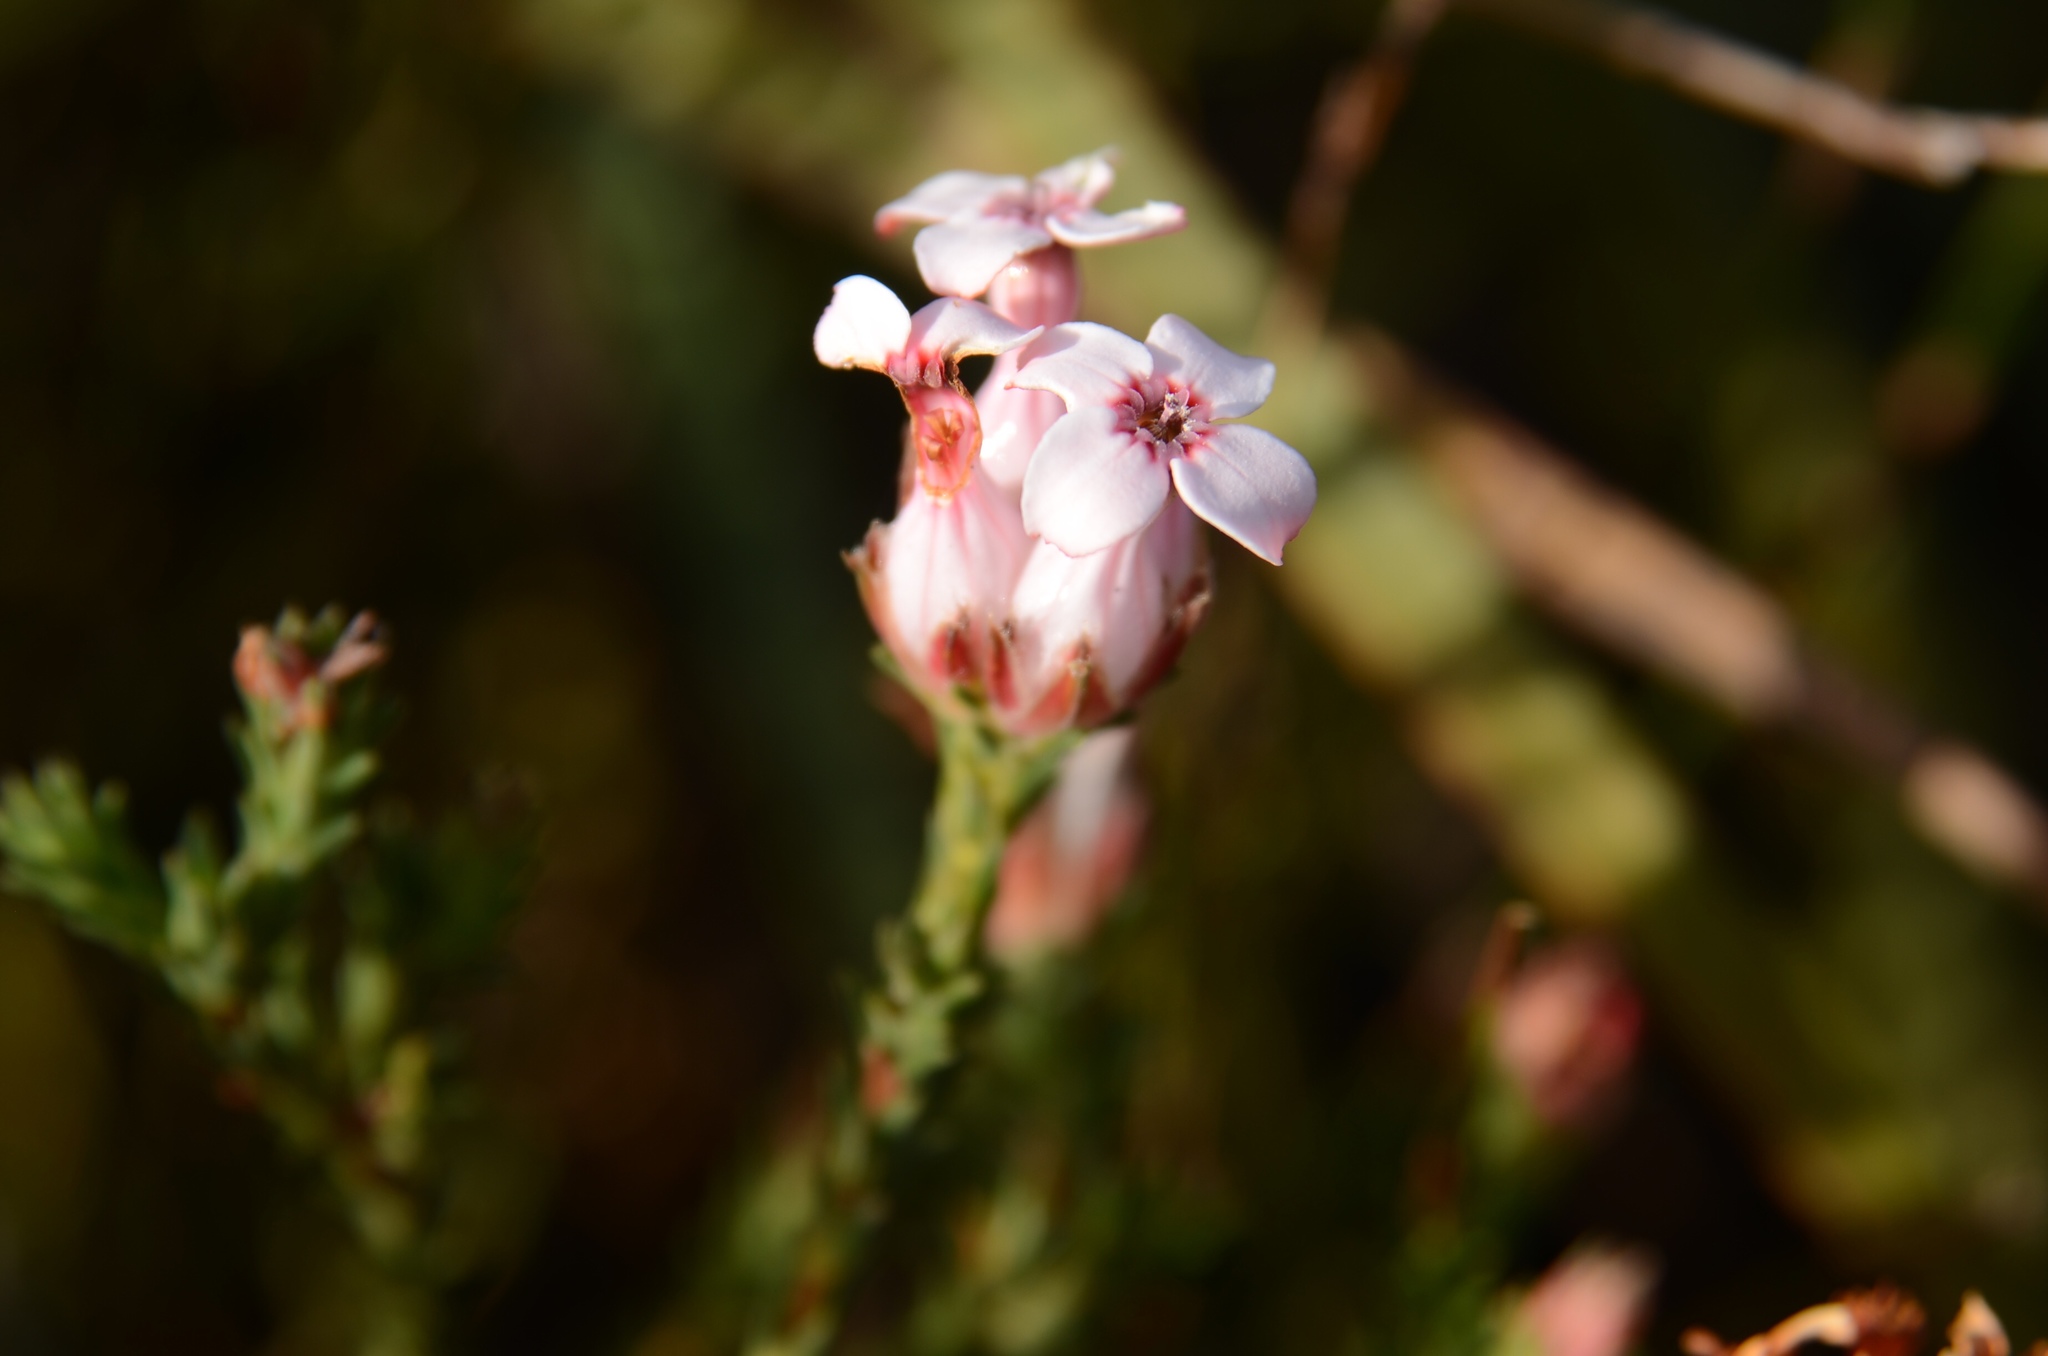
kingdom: Plantae
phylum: Tracheophyta
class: Magnoliopsida
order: Ericales
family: Ericaceae
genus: Erica
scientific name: Erica ampullacea
